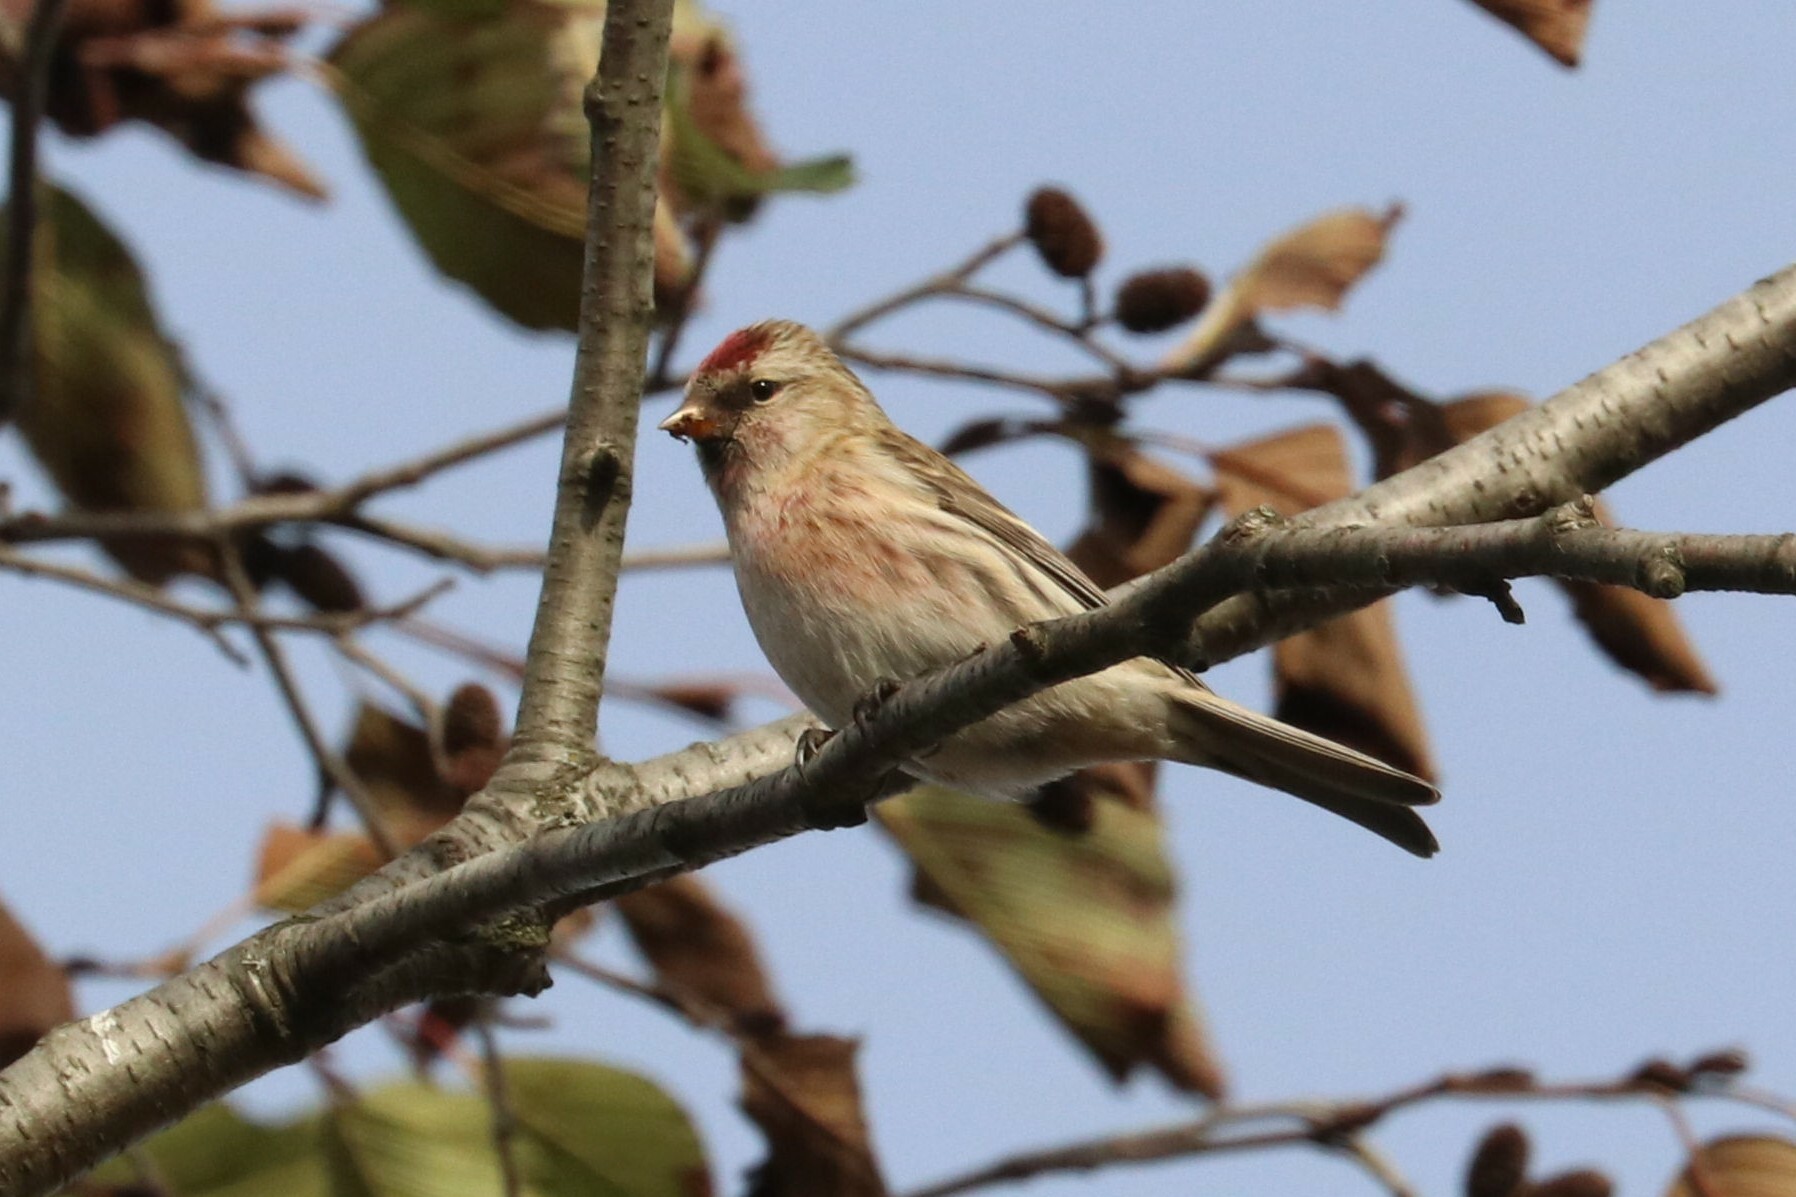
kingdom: Animalia
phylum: Chordata
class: Aves
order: Passeriformes
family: Fringillidae
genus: Acanthis
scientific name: Acanthis flammea
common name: Common redpoll
